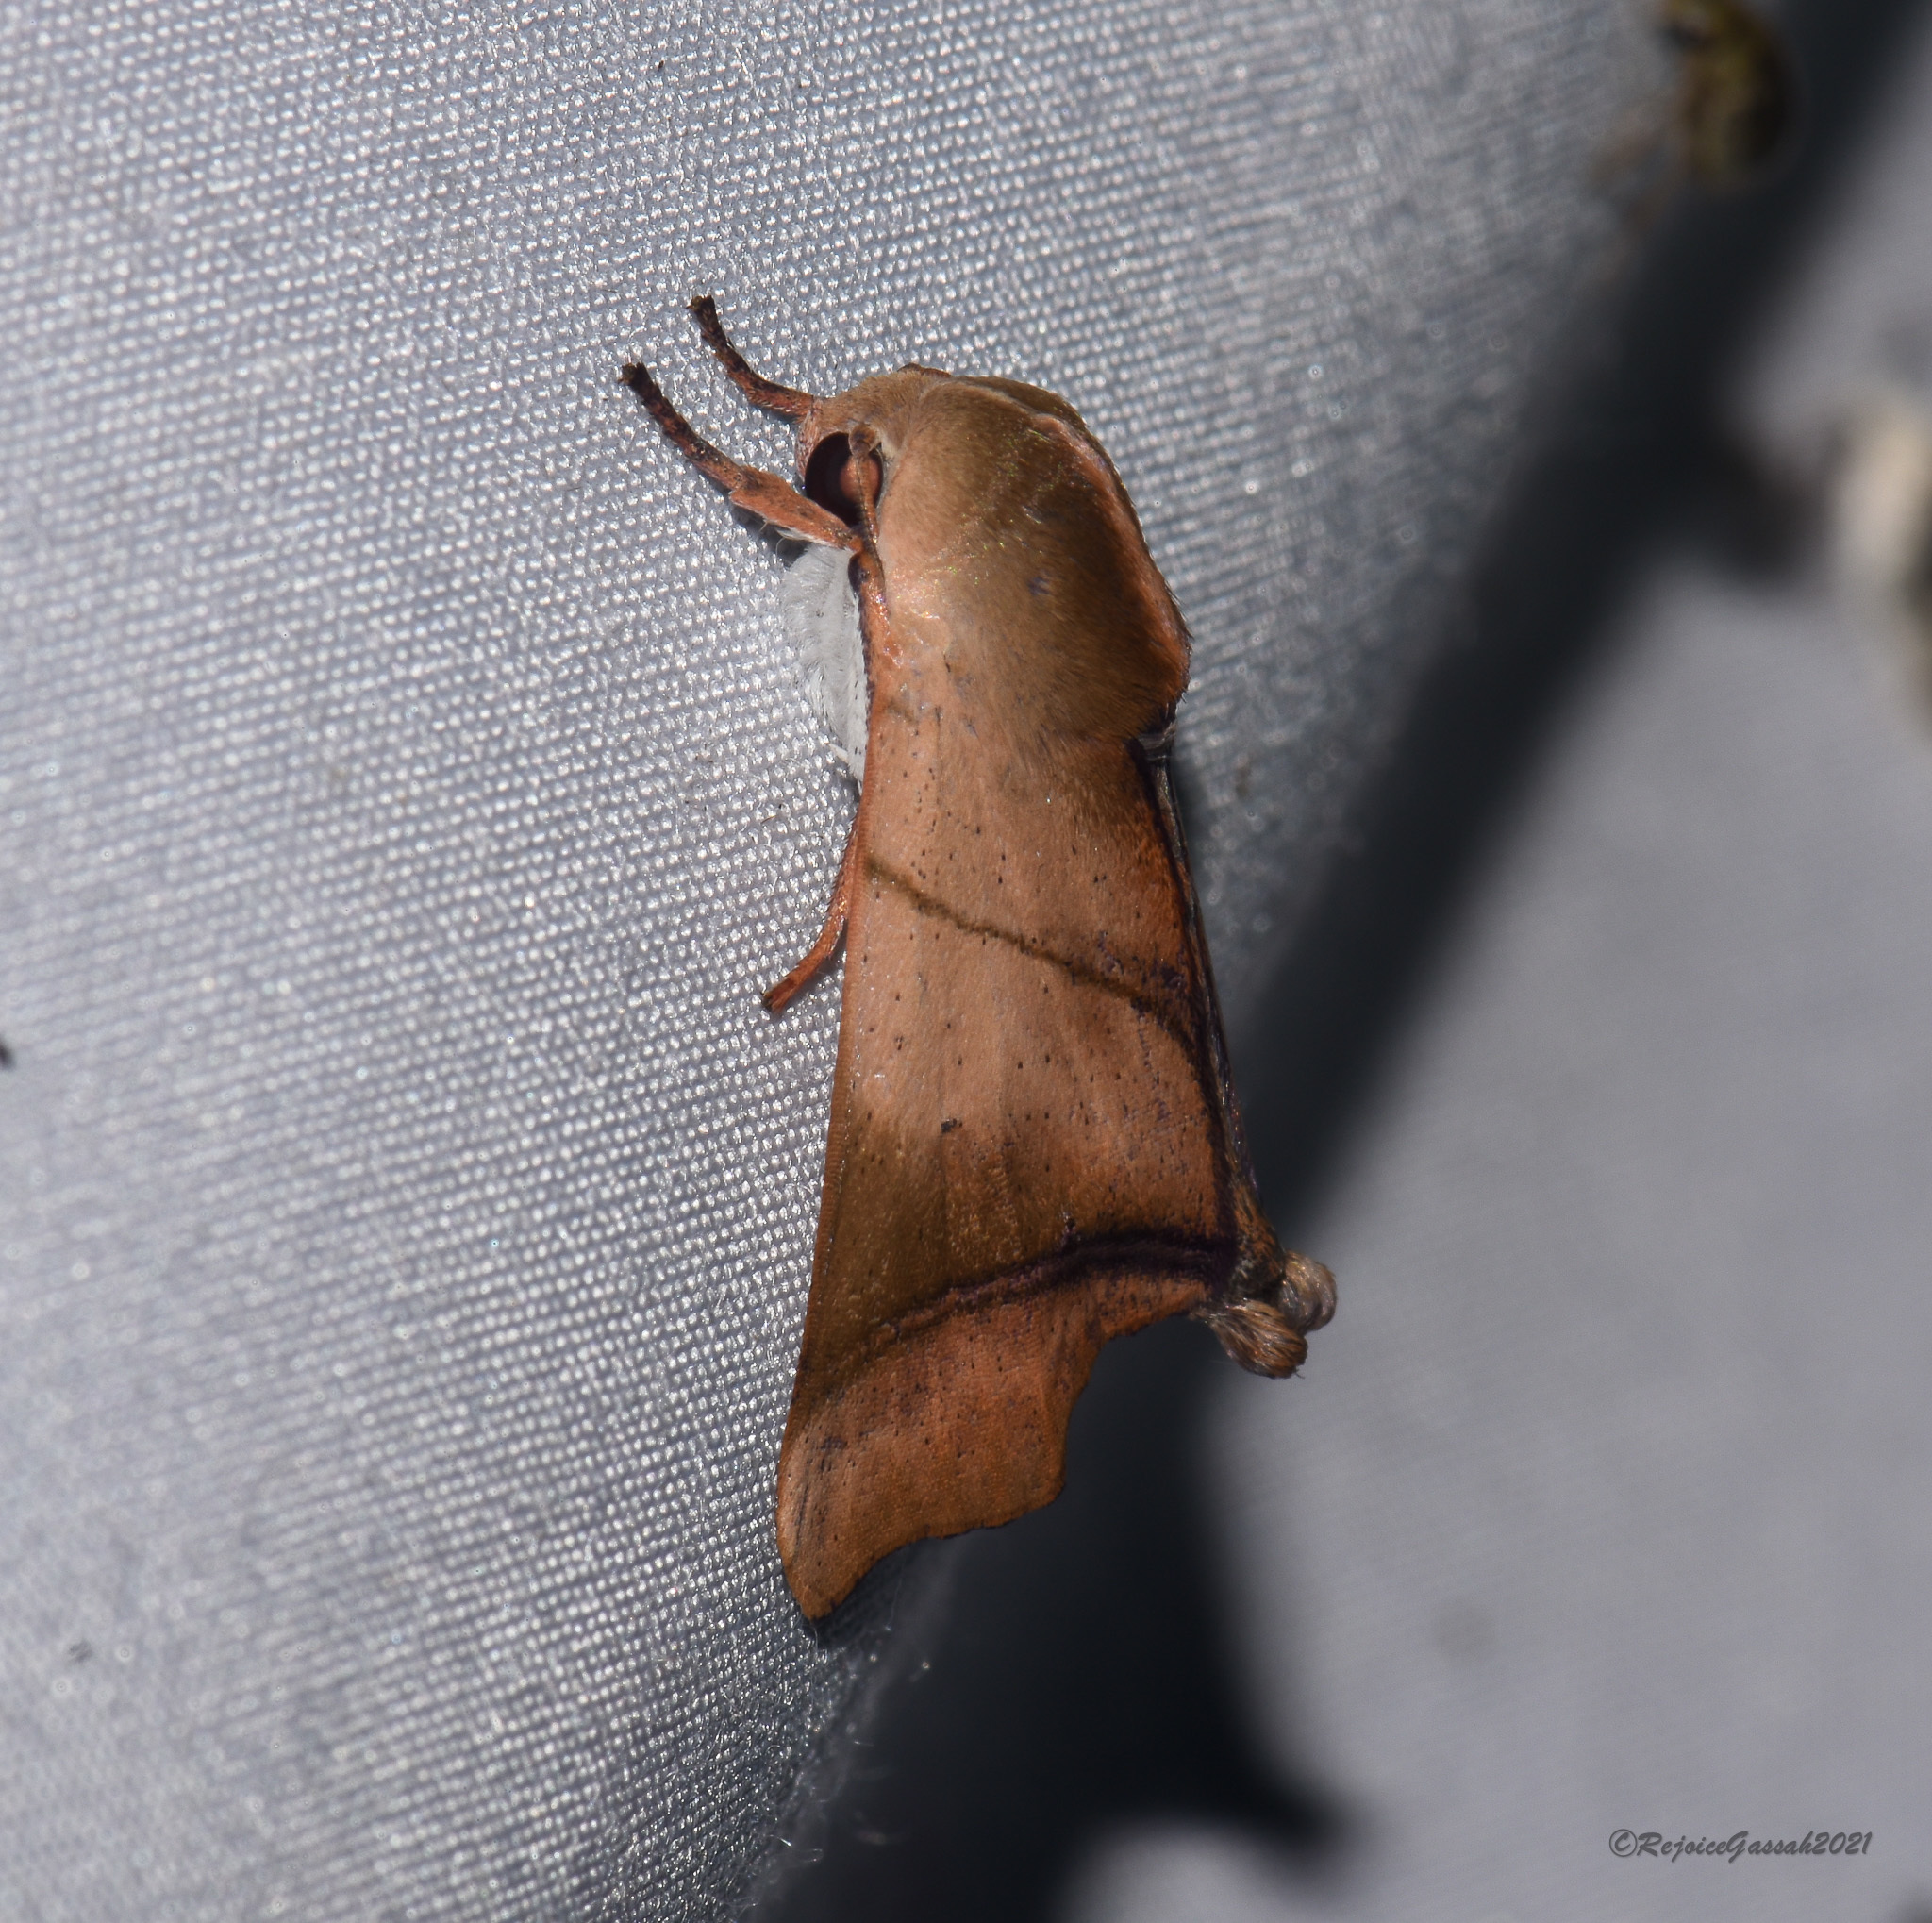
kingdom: Animalia
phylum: Arthropoda
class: Insecta
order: Lepidoptera
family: Nolidae
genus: Carea
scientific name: Carea angulata
